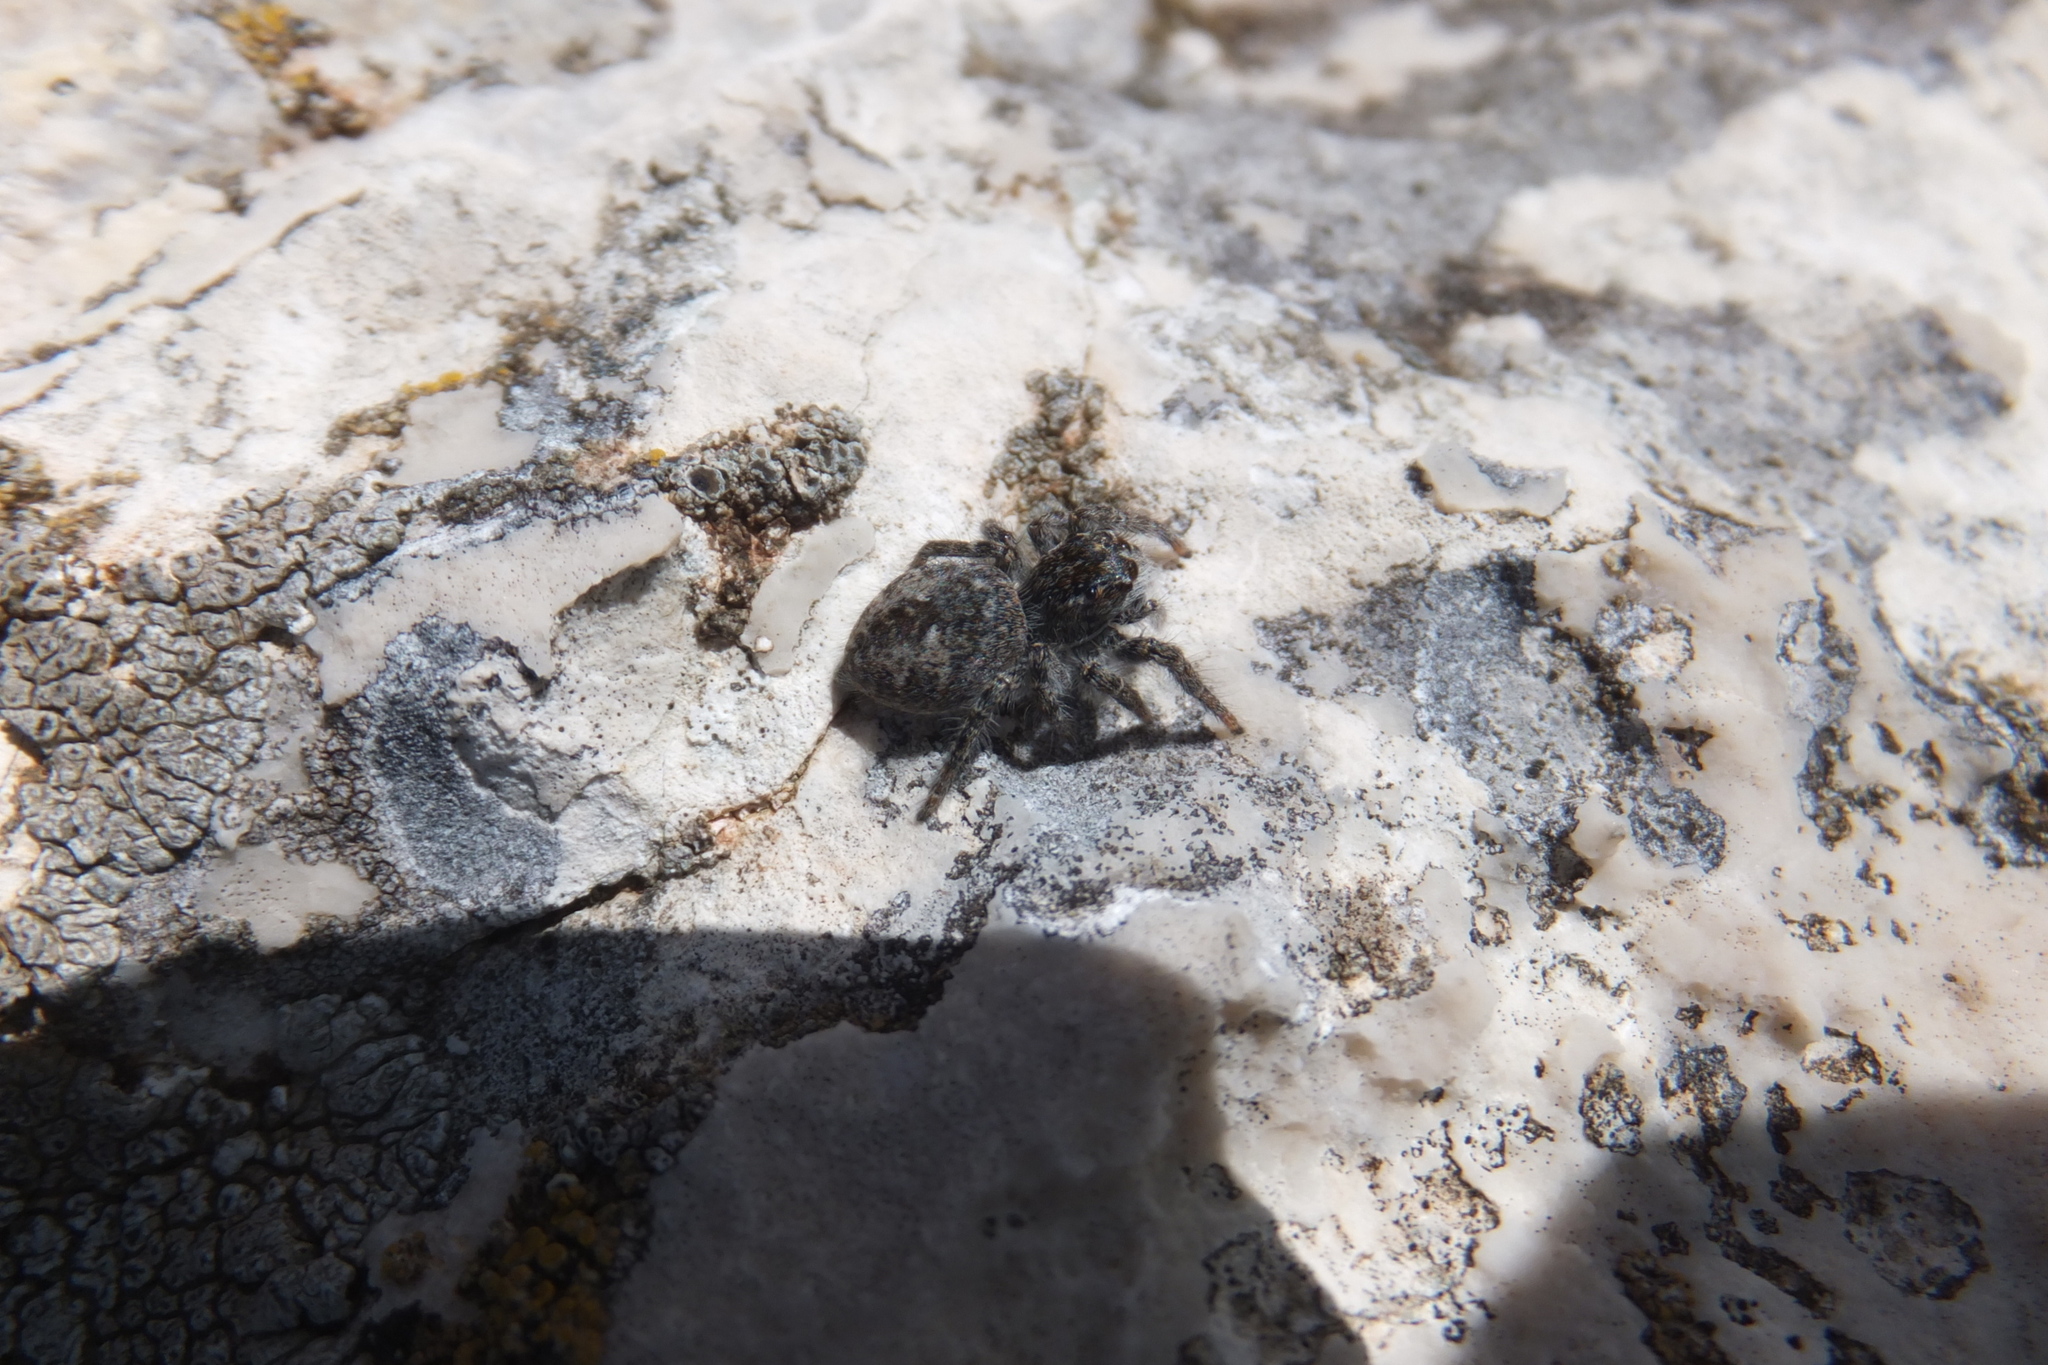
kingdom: Animalia
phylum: Arthropoda
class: Arachnida
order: Araneae
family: Salticidae
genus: Philaeus
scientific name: Philaeus chrysops
